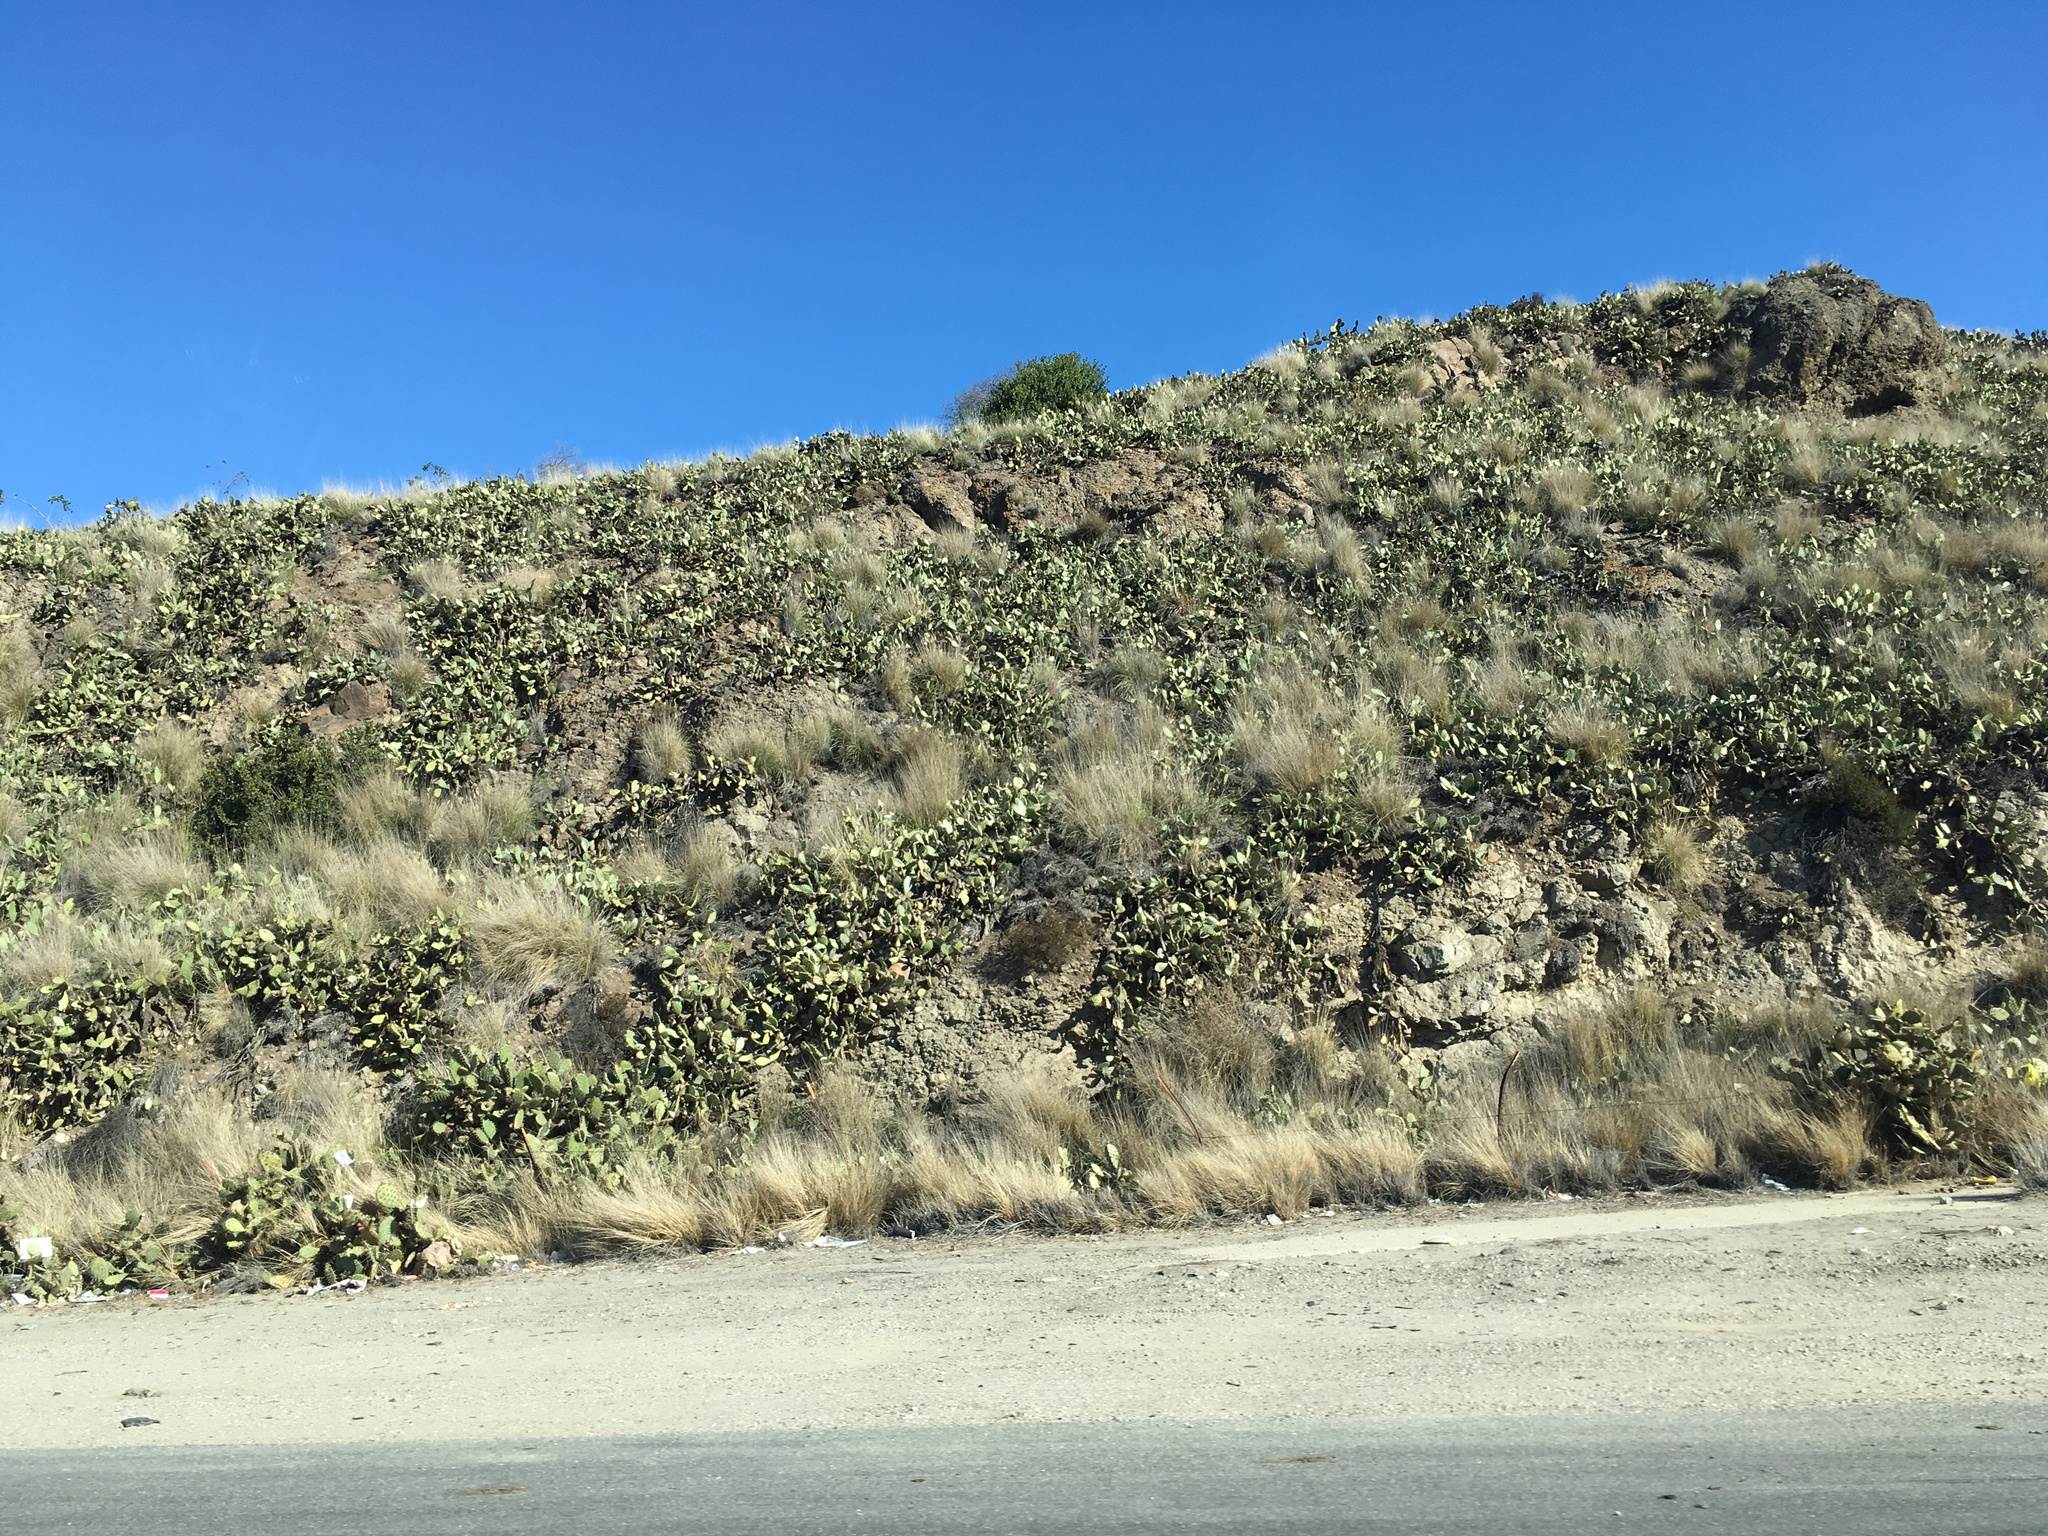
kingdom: Plantae
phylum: Tracheophyta
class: Magnoliopsida
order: Caryophyllales
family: Cactaceae
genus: Opuntia
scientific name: Opuntia littoralis
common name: Coastal prickly-pear
